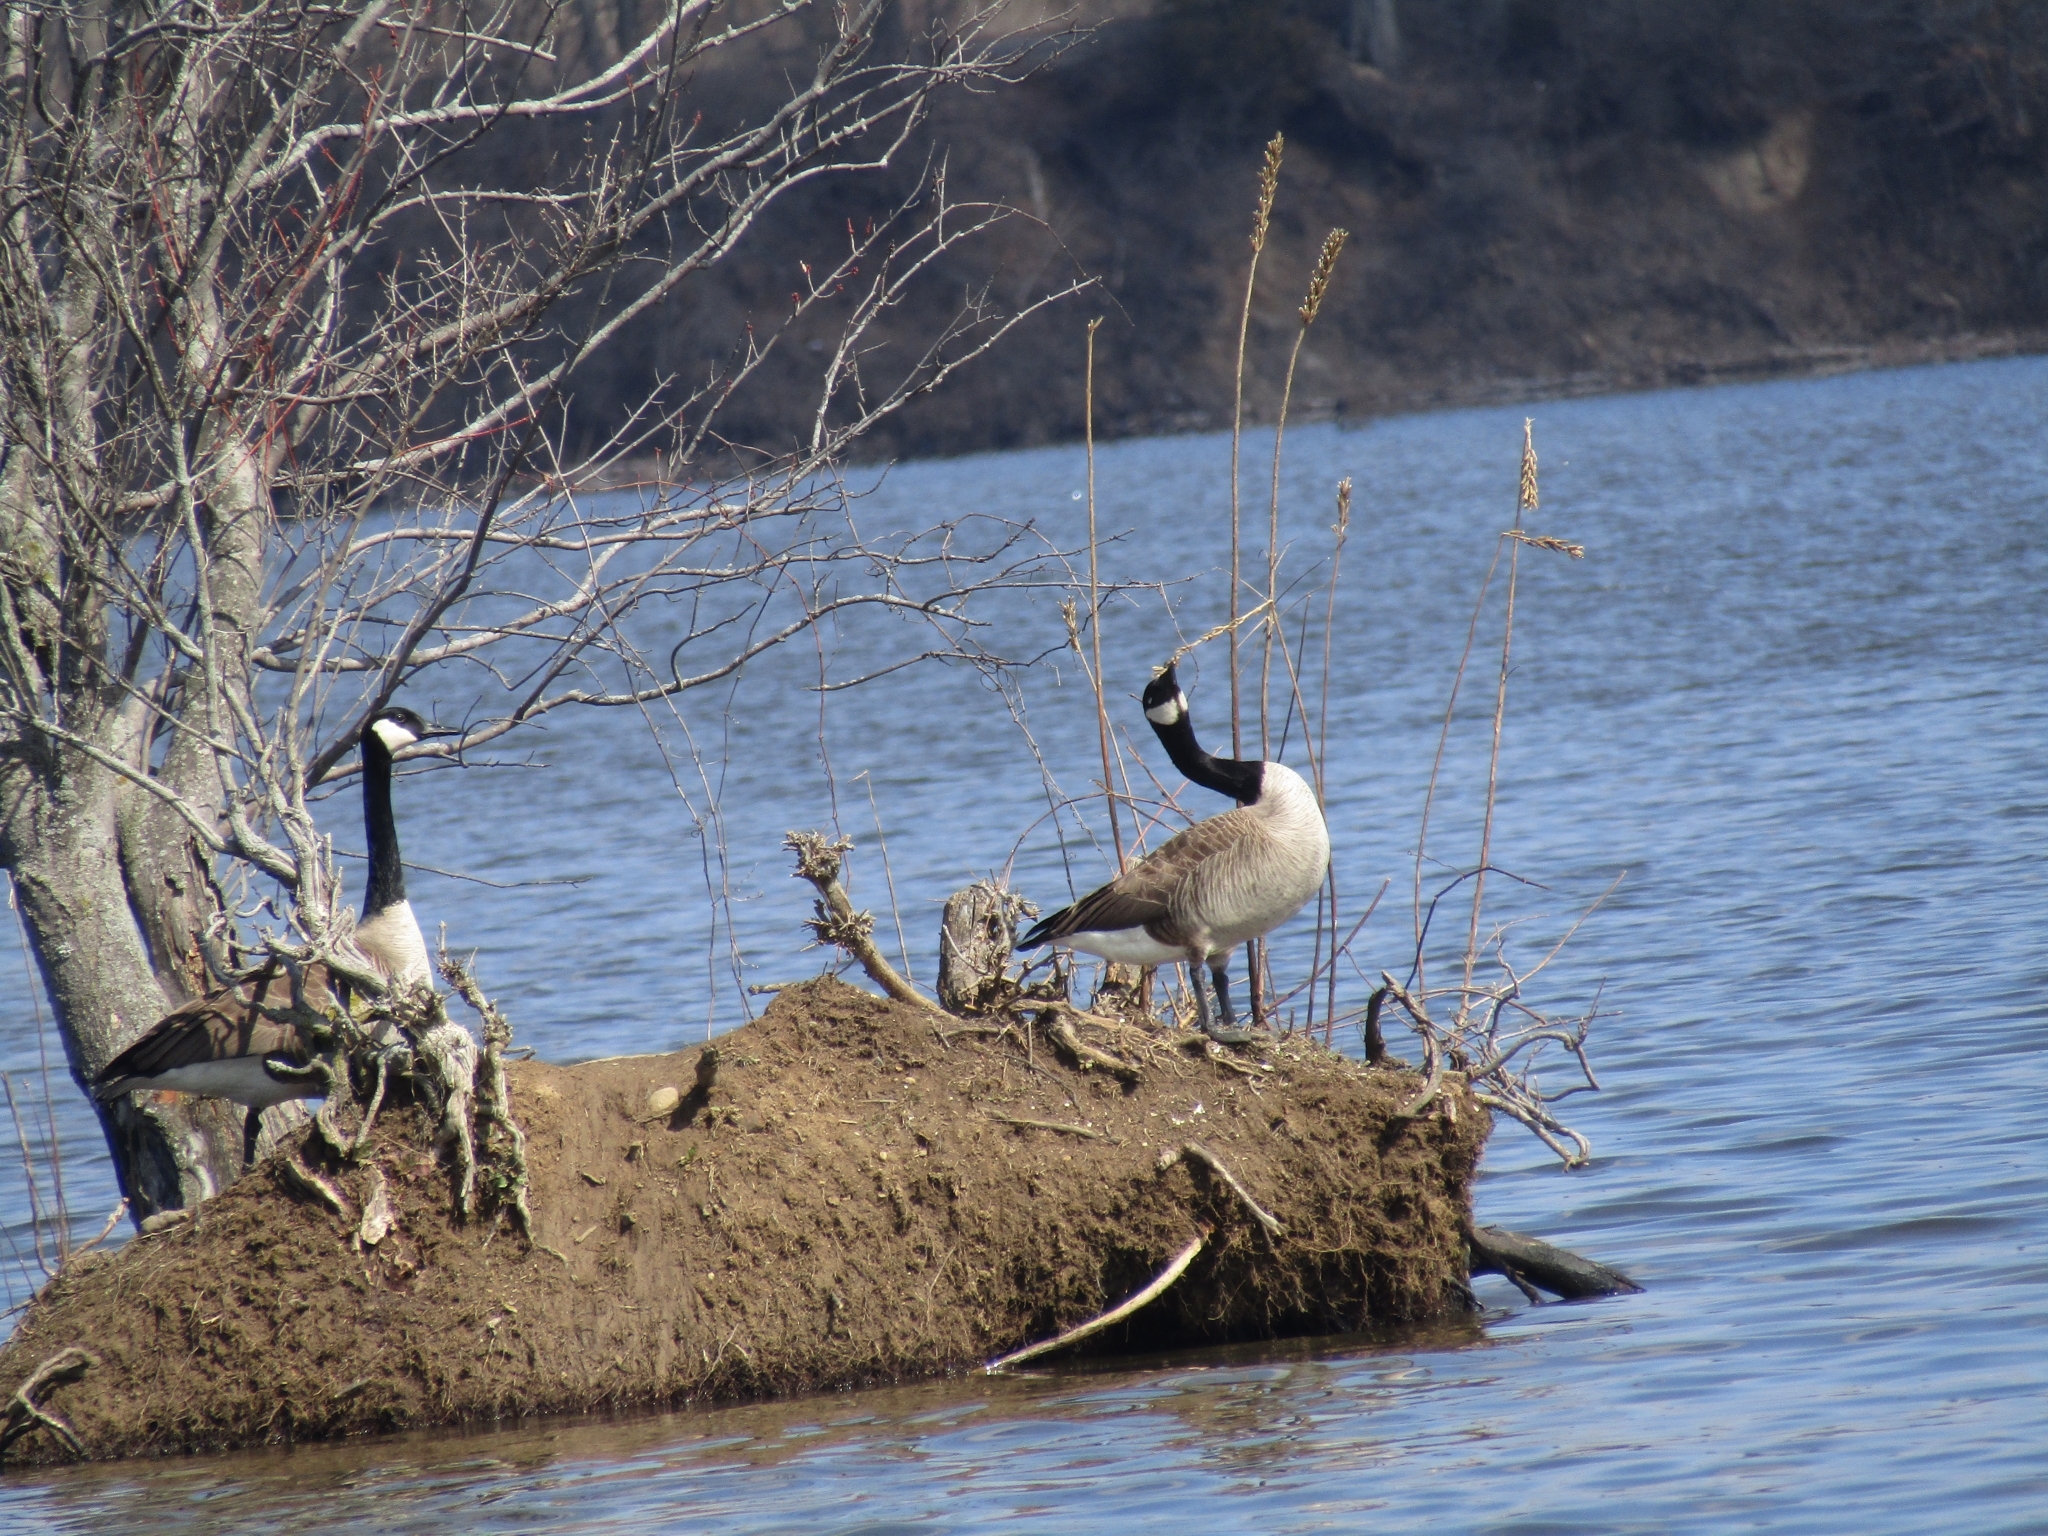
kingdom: Animalia
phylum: Chordata
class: Aves
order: Anseriformes
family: Anatidae
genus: Branta
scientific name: Branta canadensis
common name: Canada goose
